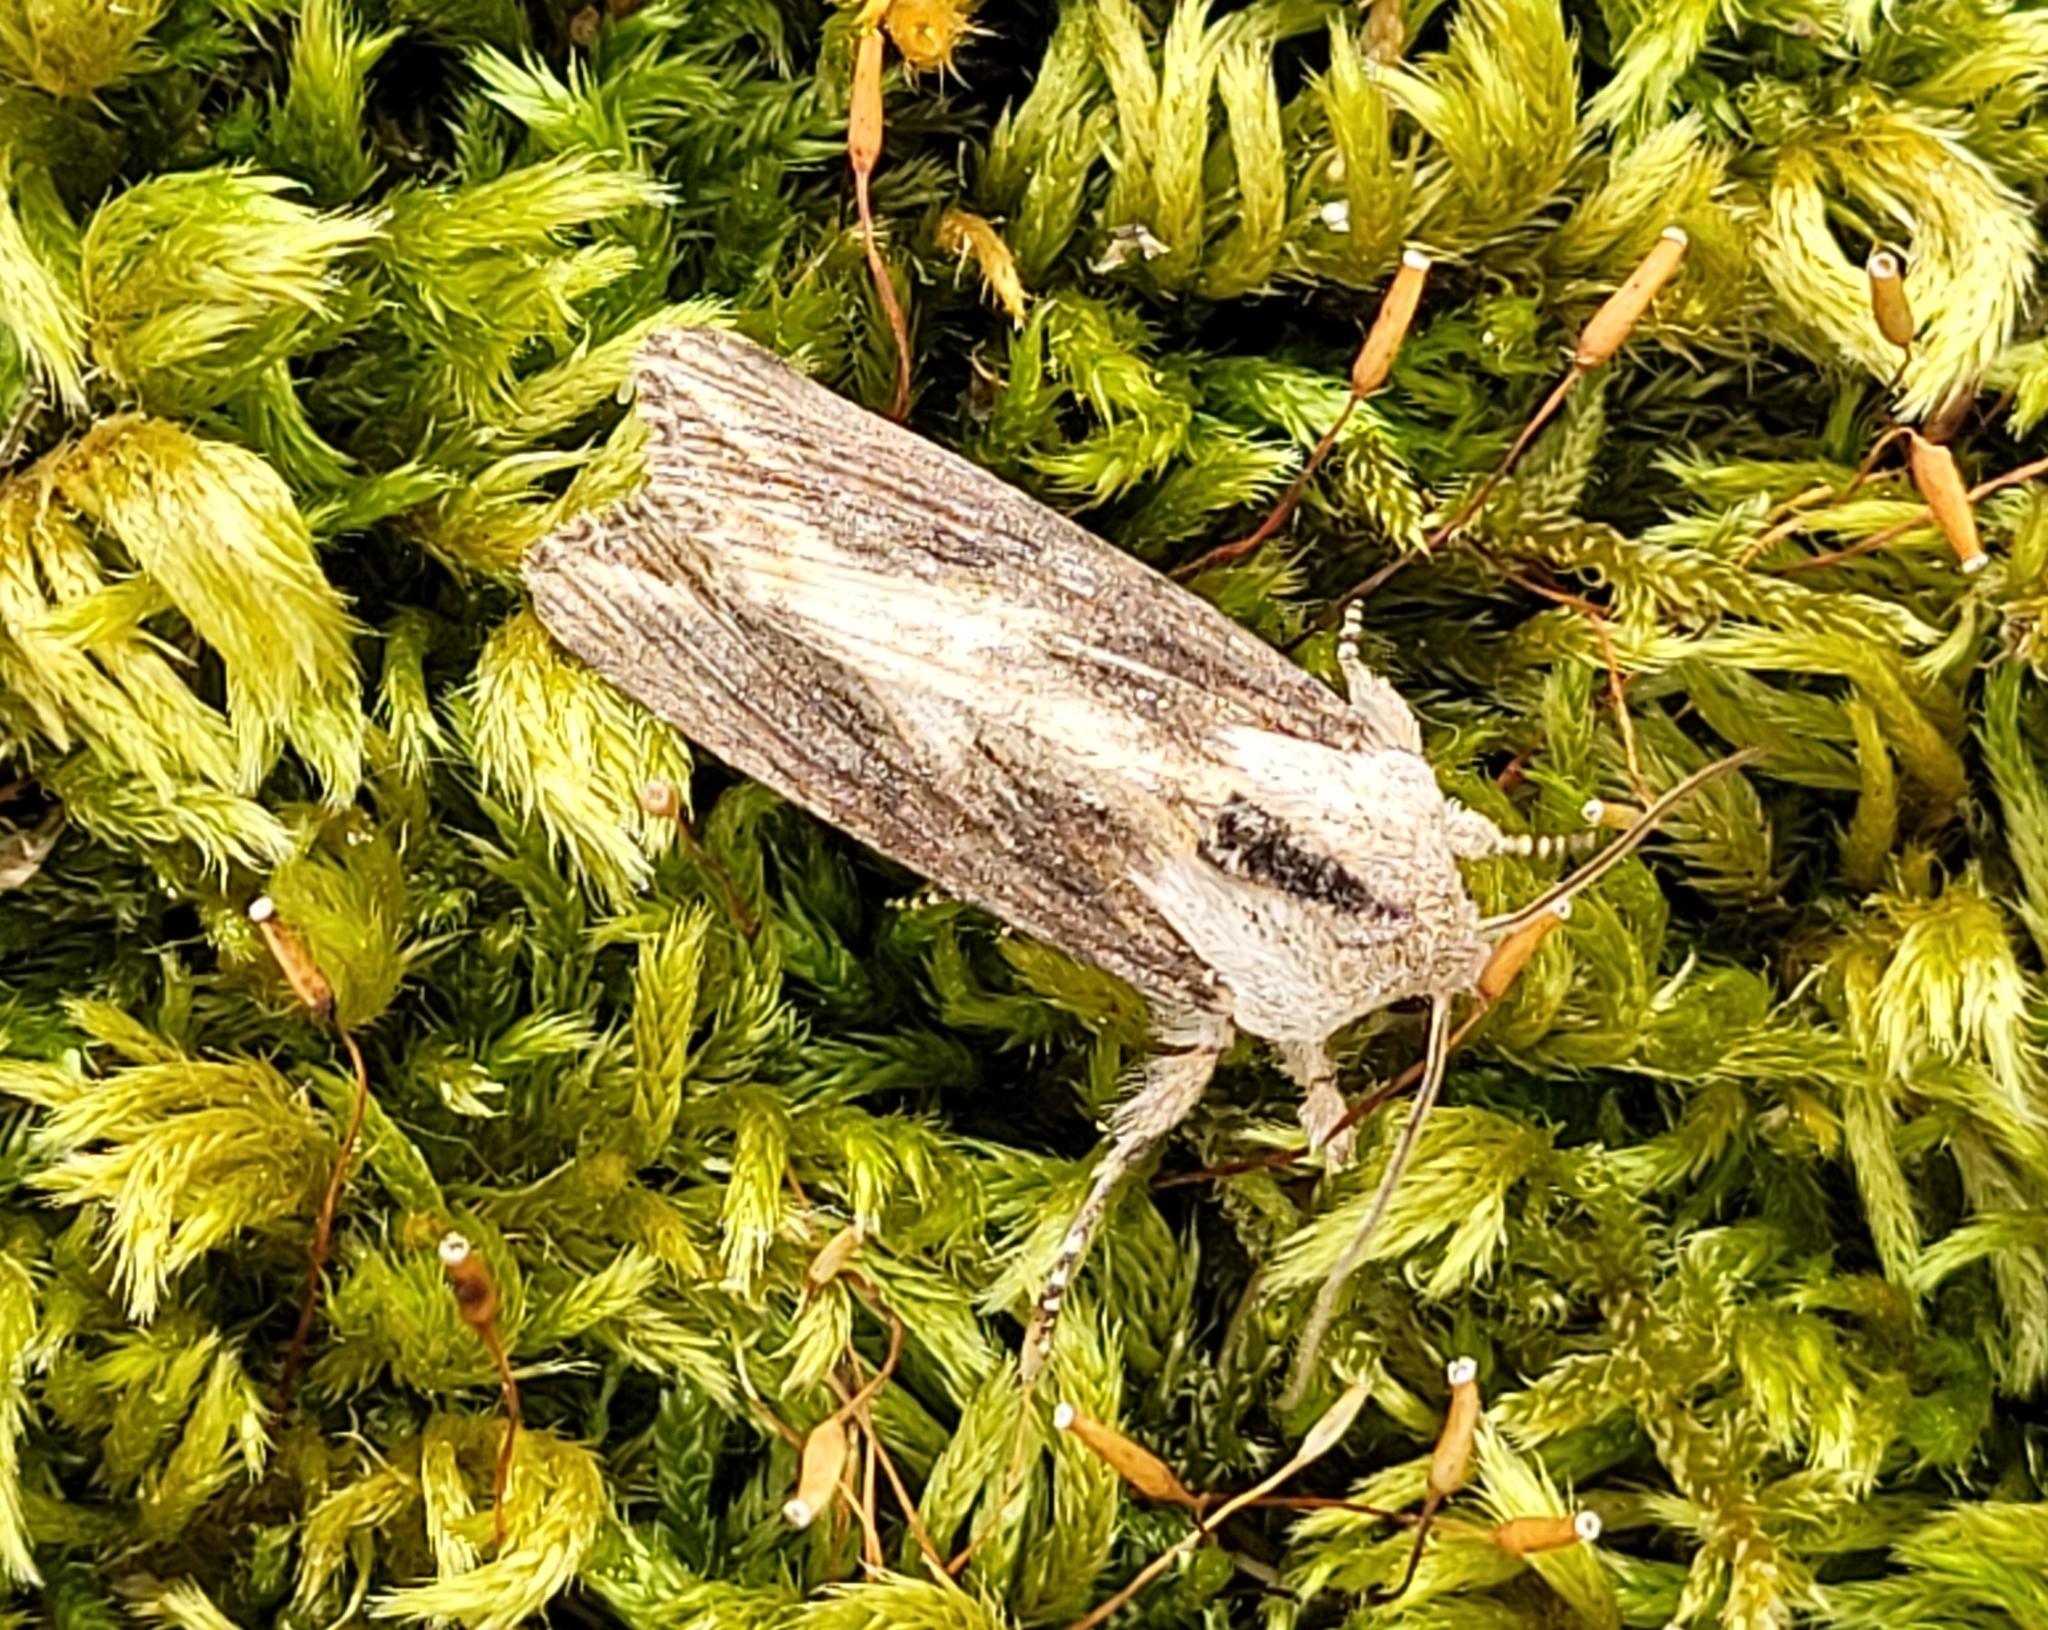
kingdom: Animalia
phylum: Arthropoda
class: Insecta
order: Lepidoptera
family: Noctuidae
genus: Egira
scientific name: Egira conspicillaris
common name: Silver cloud
